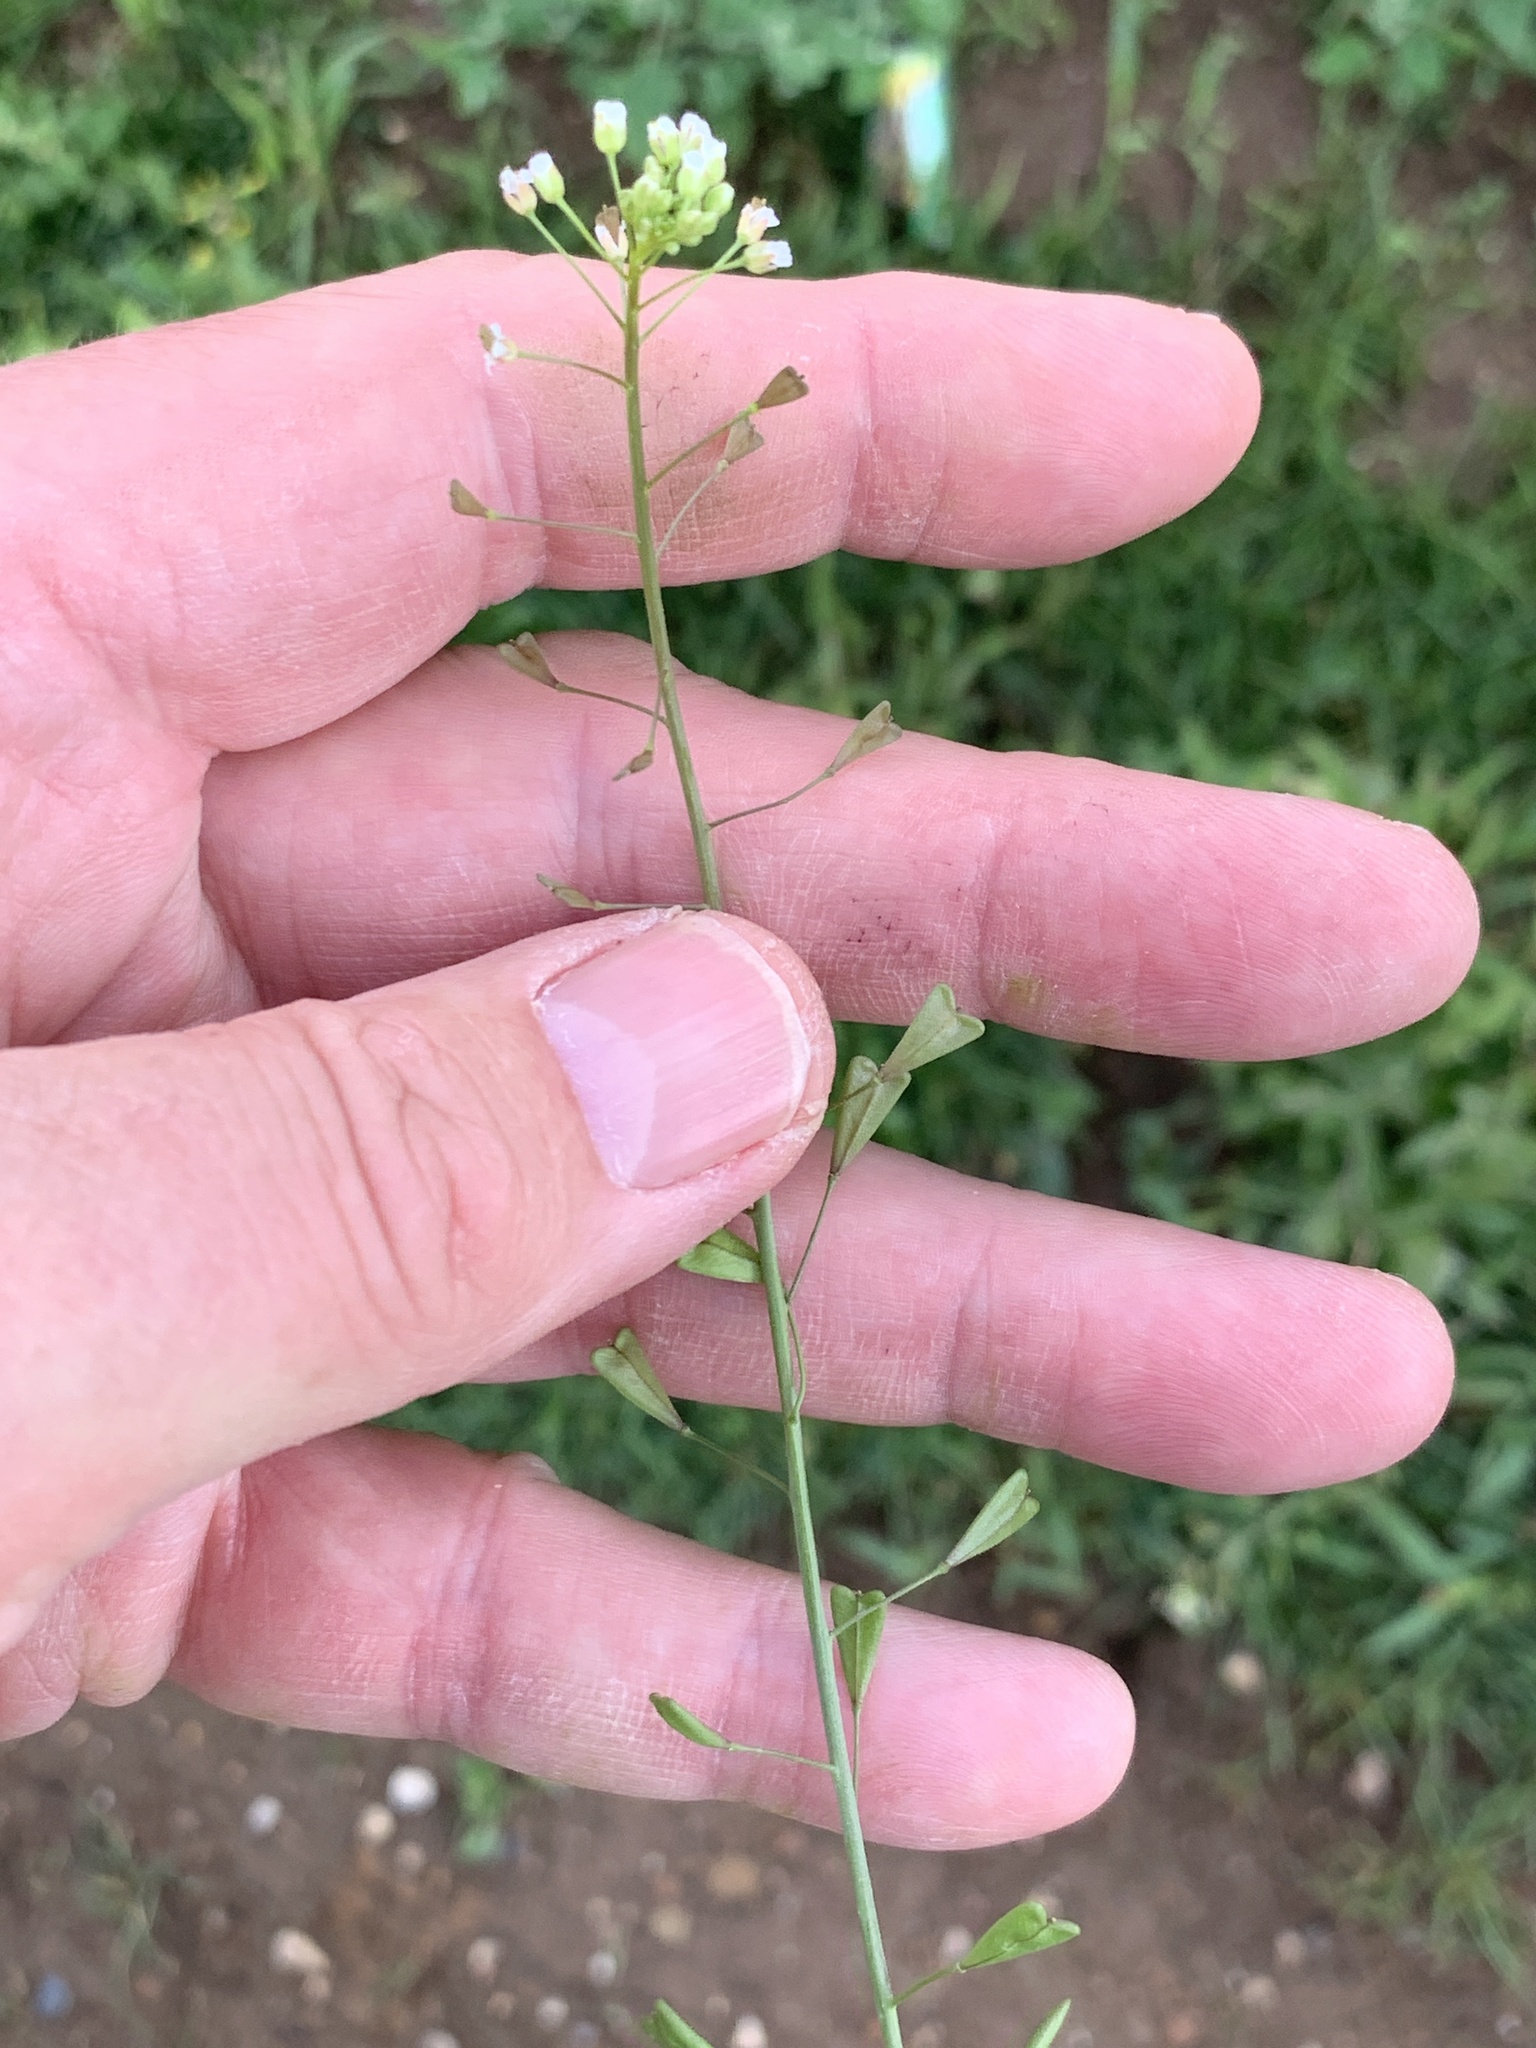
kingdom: Plantae
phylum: Tracheophyta
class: Magnoliopsida
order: Brassicales
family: Brassicaceae
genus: Capsella
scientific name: Capsella bursa-pastoris
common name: Shepherd's purse
